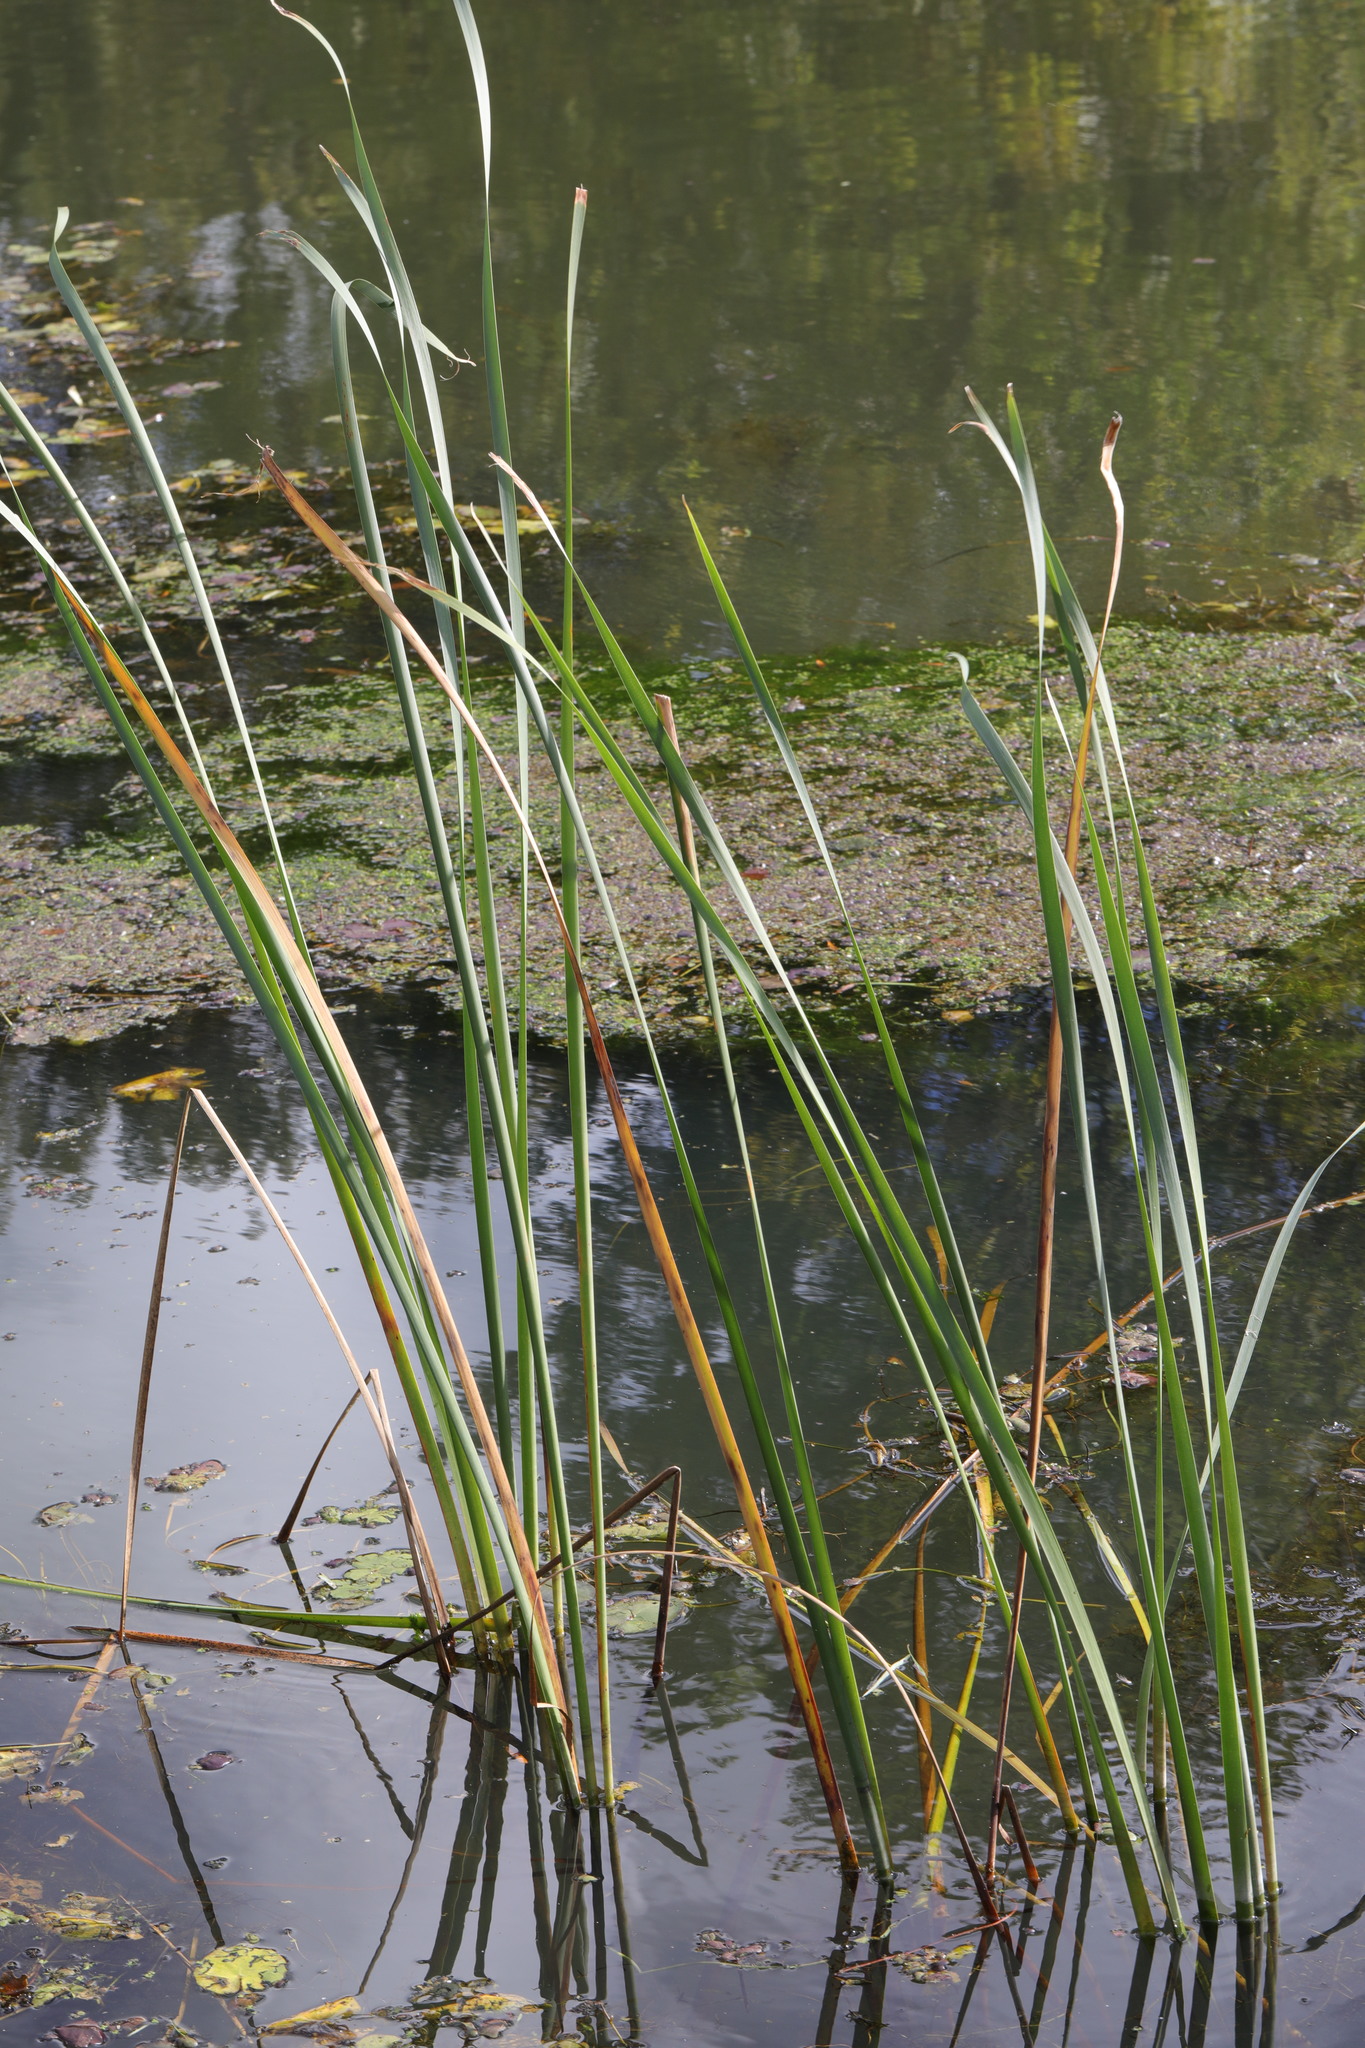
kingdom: Plantae
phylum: Tracheophyta
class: Liliopsida
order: Poales
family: Typhaceae
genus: Typha
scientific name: Typha angustifolia
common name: Lesser bulrush
